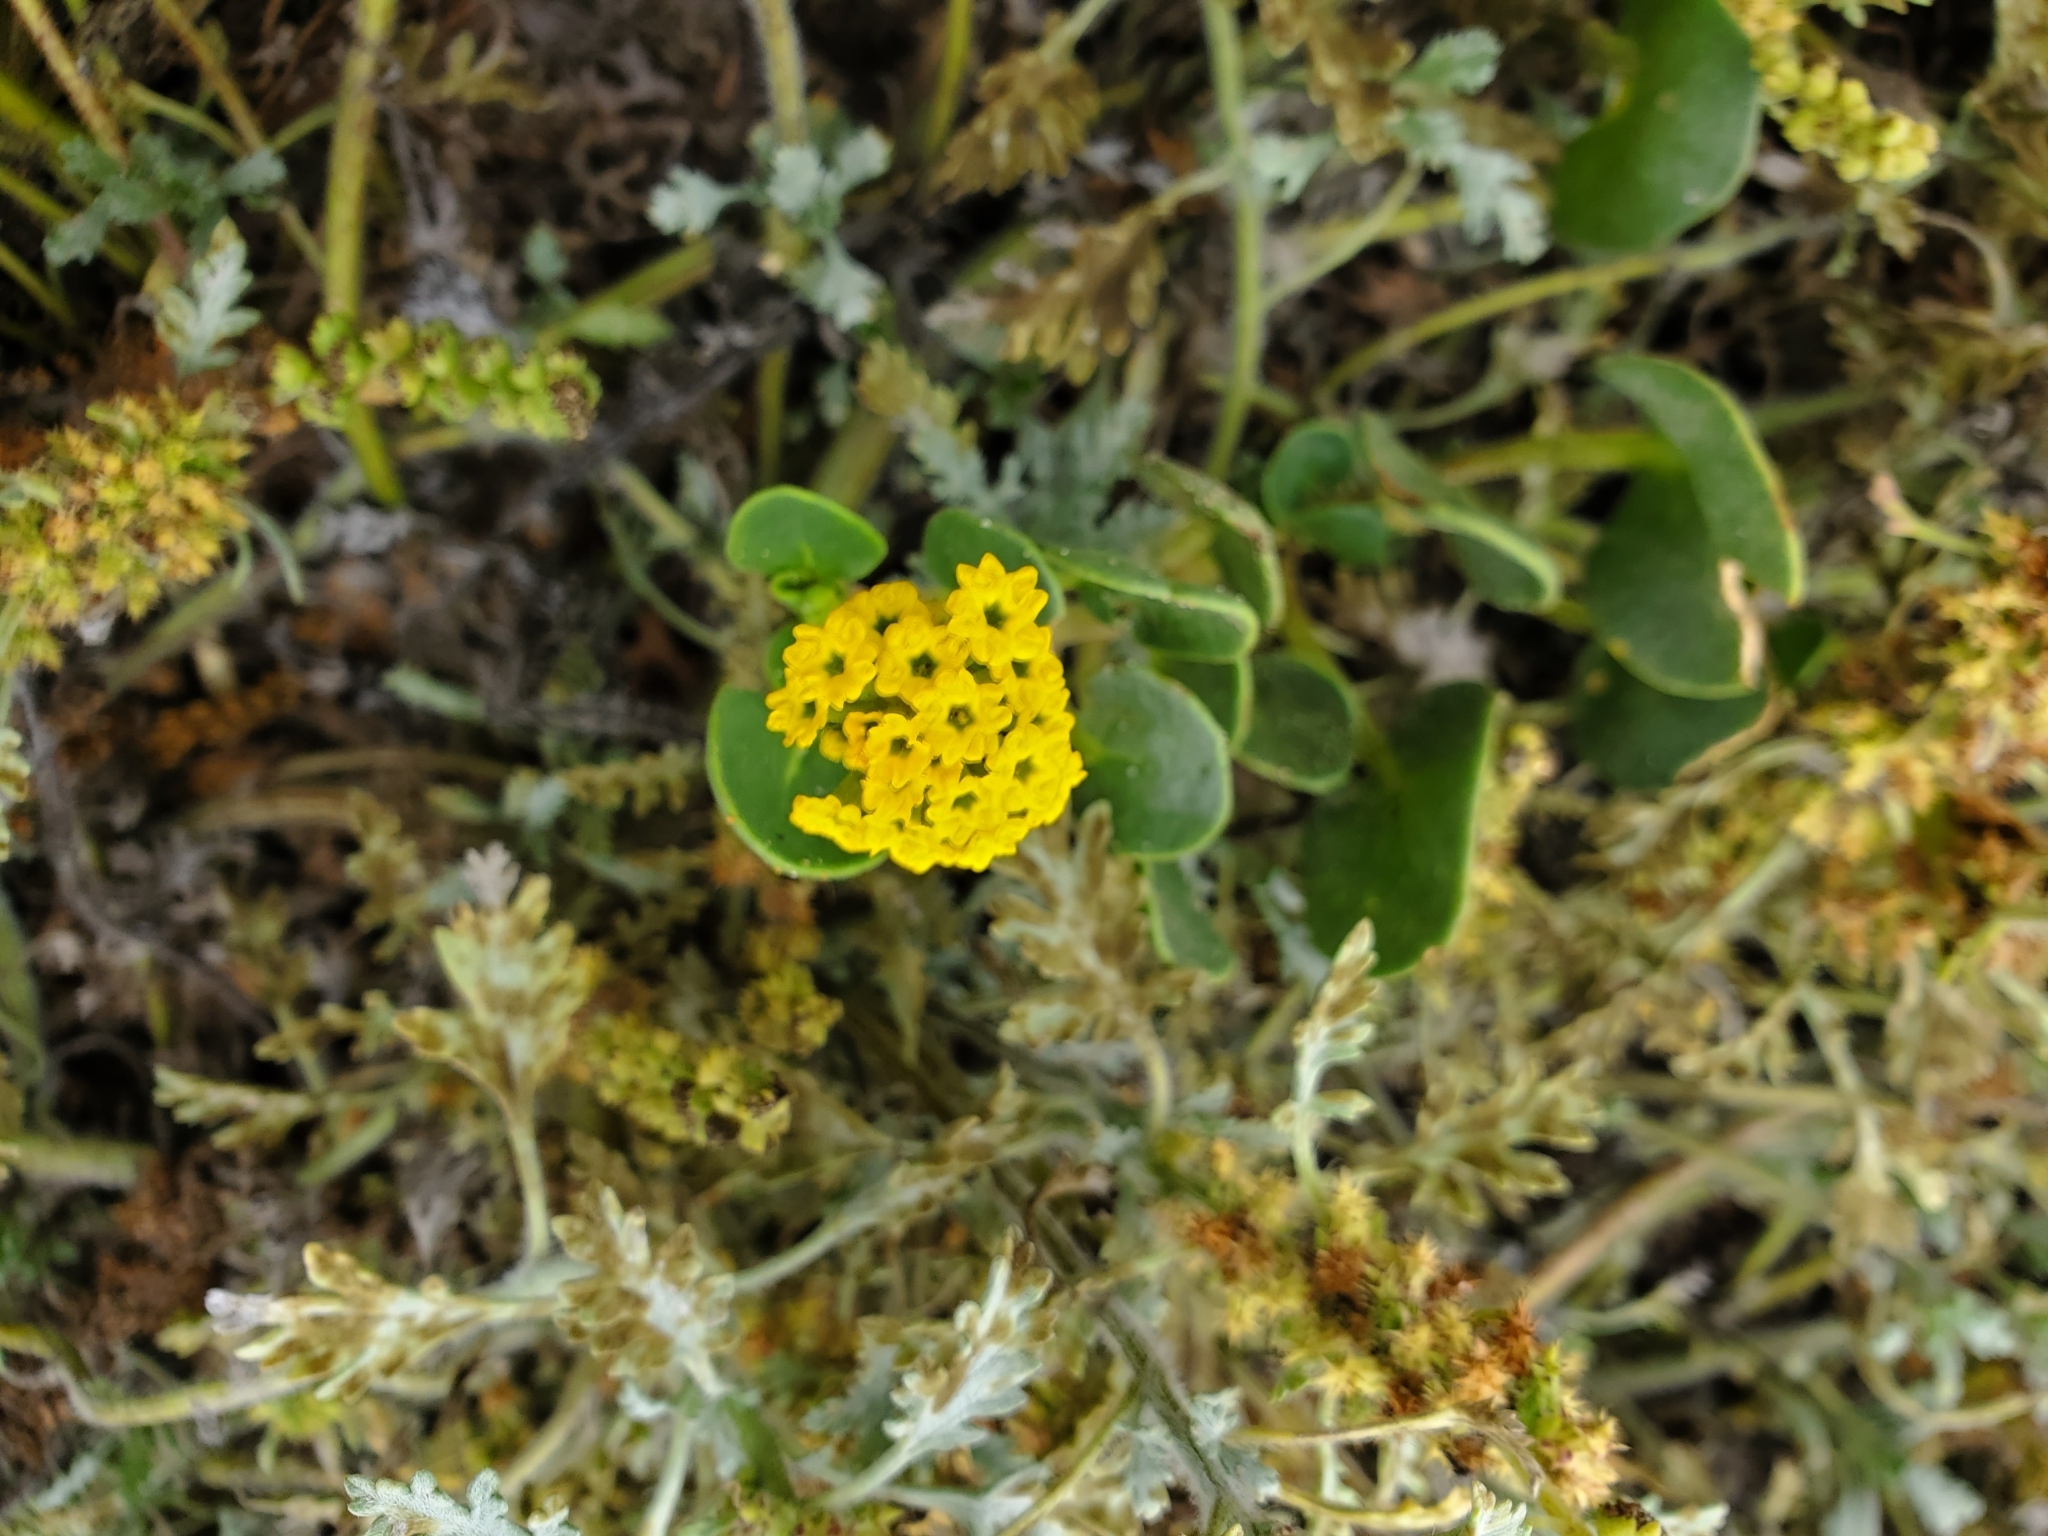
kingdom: Plantae
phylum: Tracheophyta
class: Magnoliopsida
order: Caryophyllales
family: Nyctaginaceae
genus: Abronia
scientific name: Abronia latifolia
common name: Yellow sand-verbena
